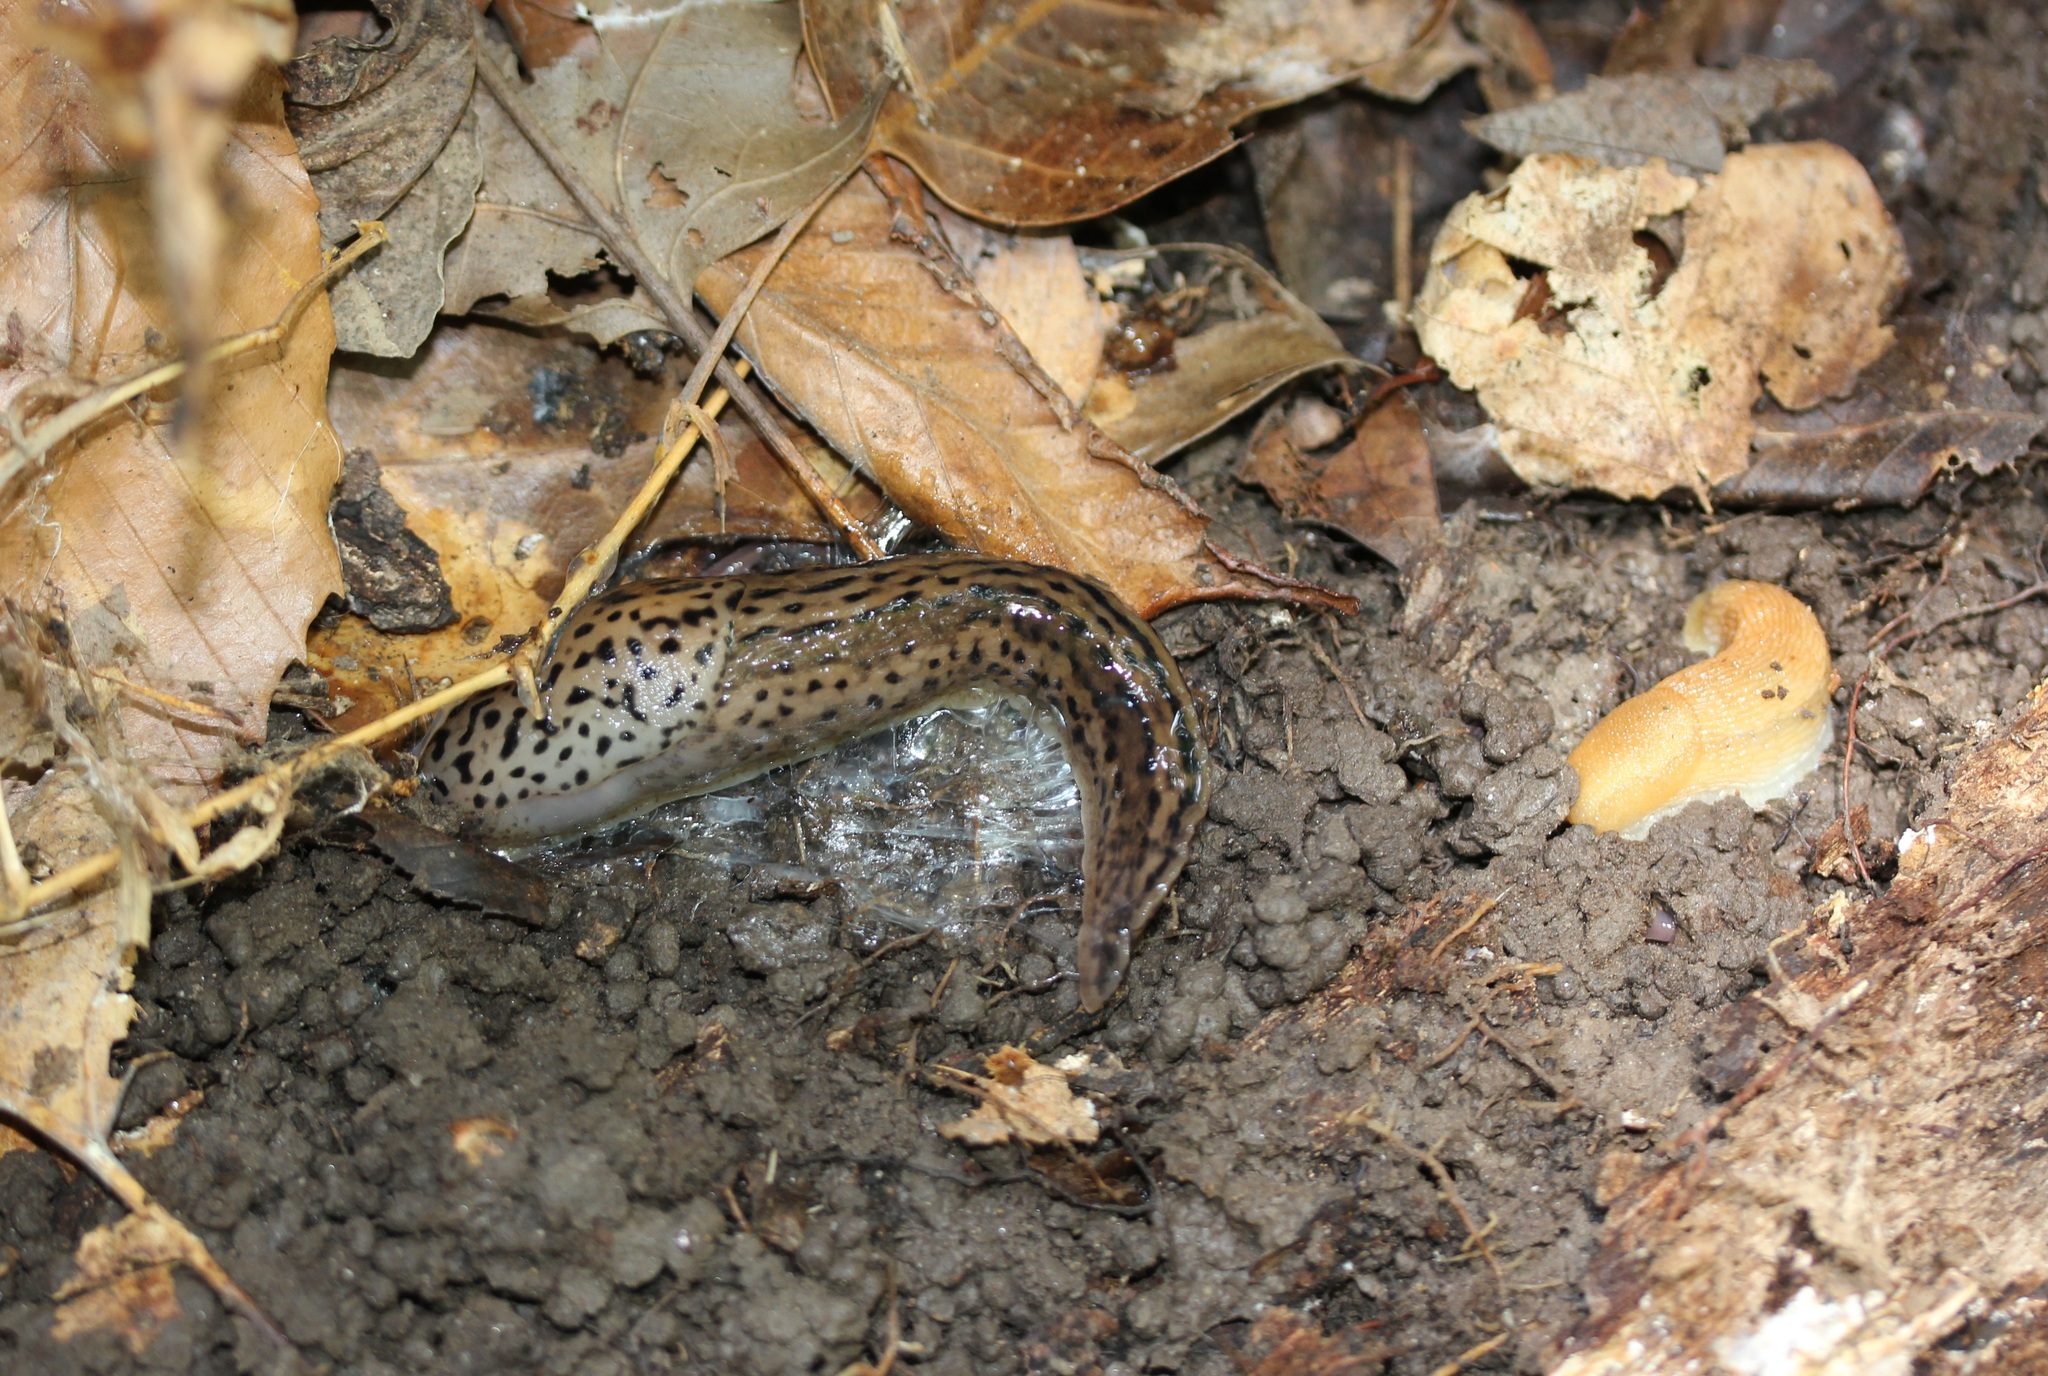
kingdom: Animalia
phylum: Mollusca
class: Gastropoda
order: Stylommatophora
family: Limacidae
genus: Limax
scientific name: Limax maximus
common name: Great grey slug
